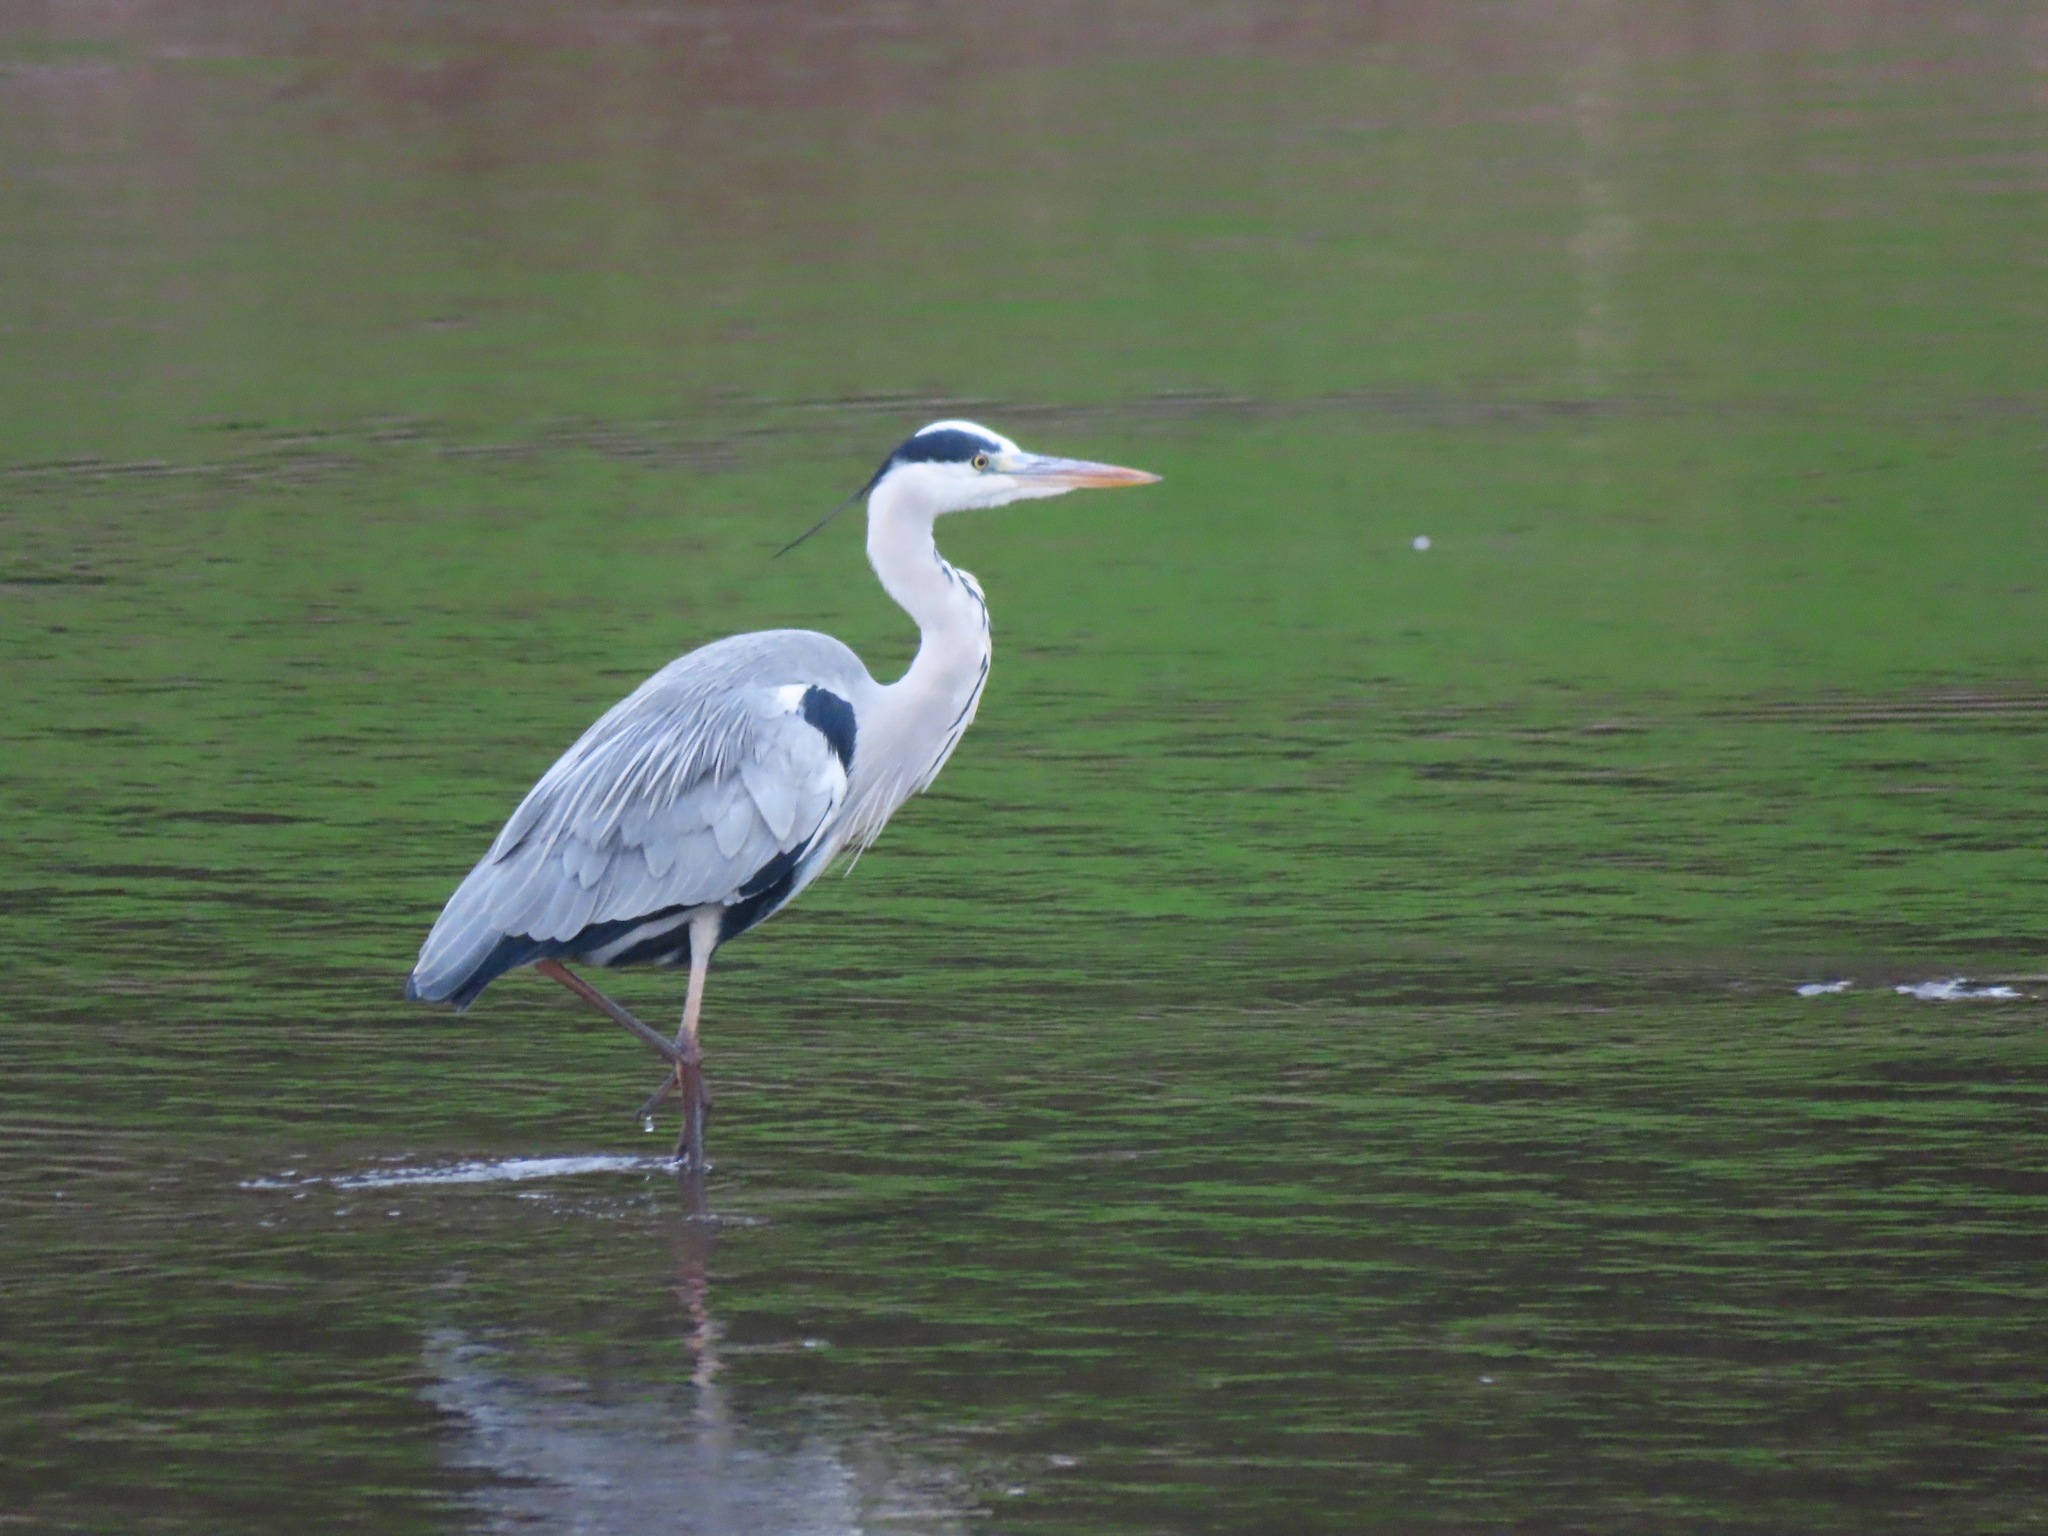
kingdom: Animalia
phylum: Chordata
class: Aves
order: Pelecaniformes
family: Ardeidae
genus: Ardea
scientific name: Ardea cinerea
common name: Grey heron
